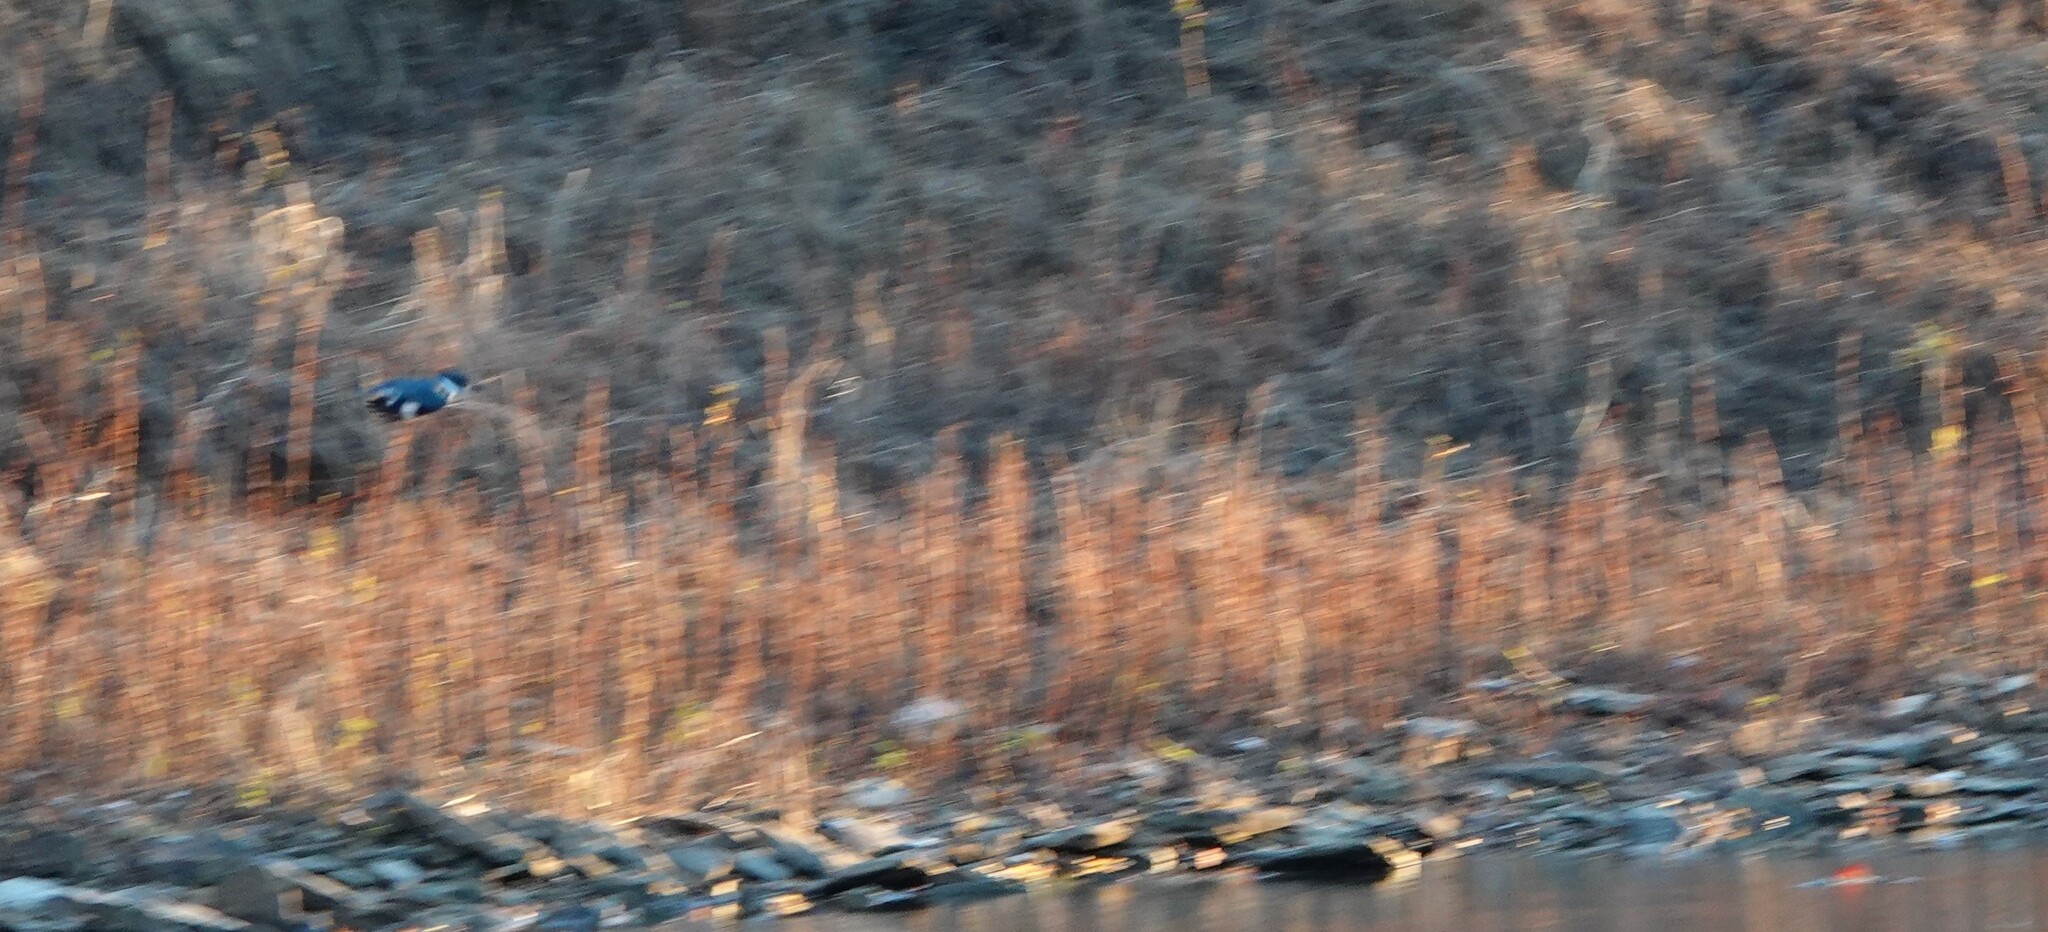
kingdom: Animalia
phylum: Chordata
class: Aves
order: Coraciiformes
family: Alcedinidae
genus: Megaceryle
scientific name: Megaceryle alcyon
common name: Belted kingfisher
